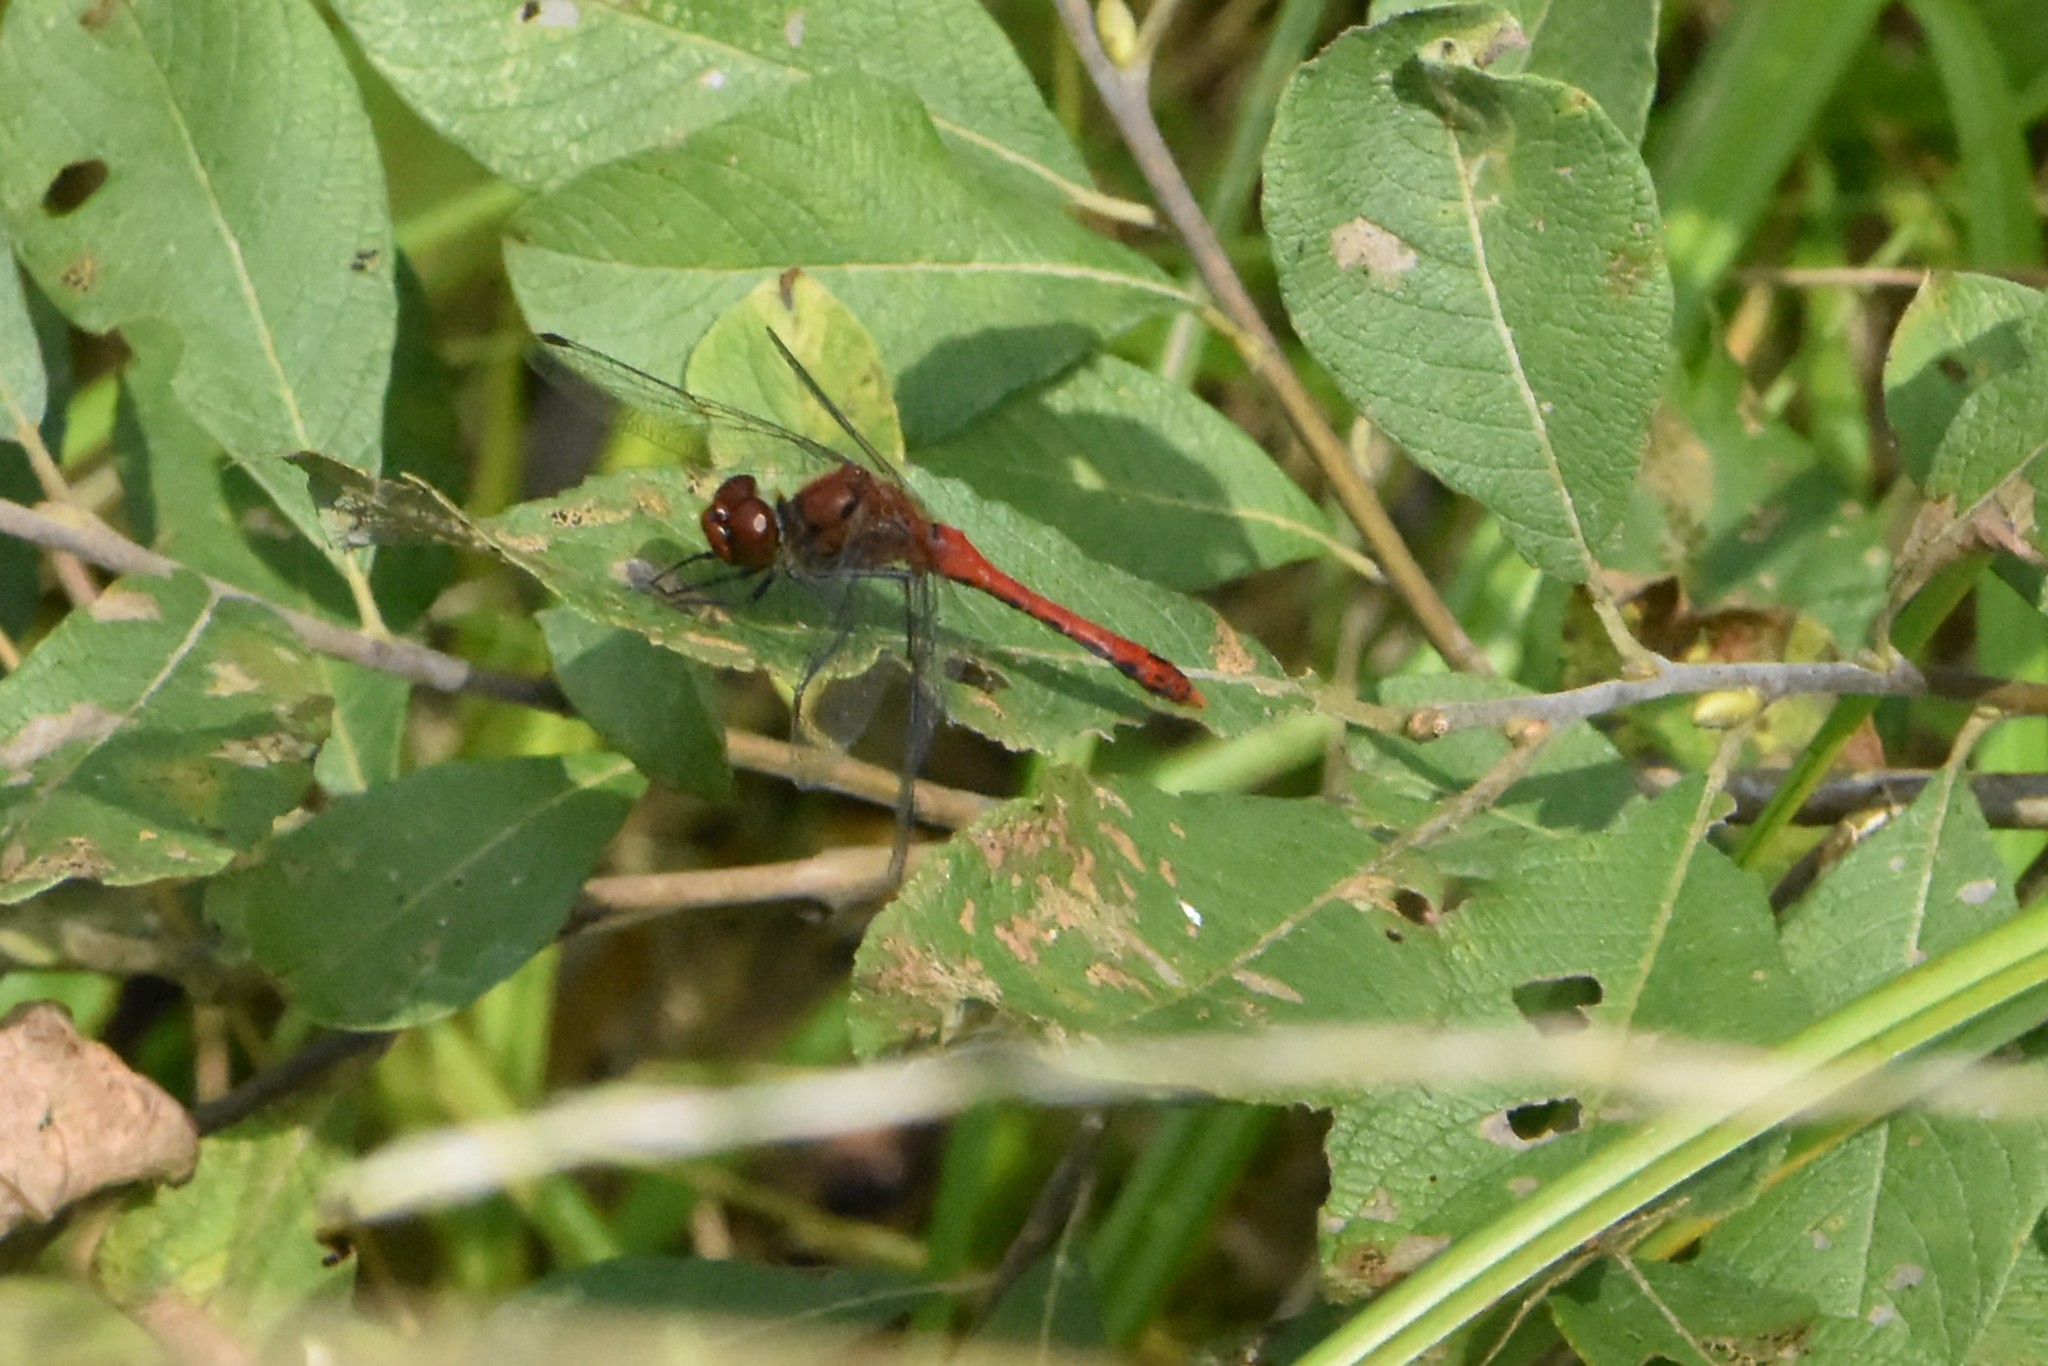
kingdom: Animalia
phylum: Arthropoda
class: Insecta
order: Odonata
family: Libellulidae
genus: Sympetrum
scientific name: Sympetrum sanguineum
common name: Ruddy darter
